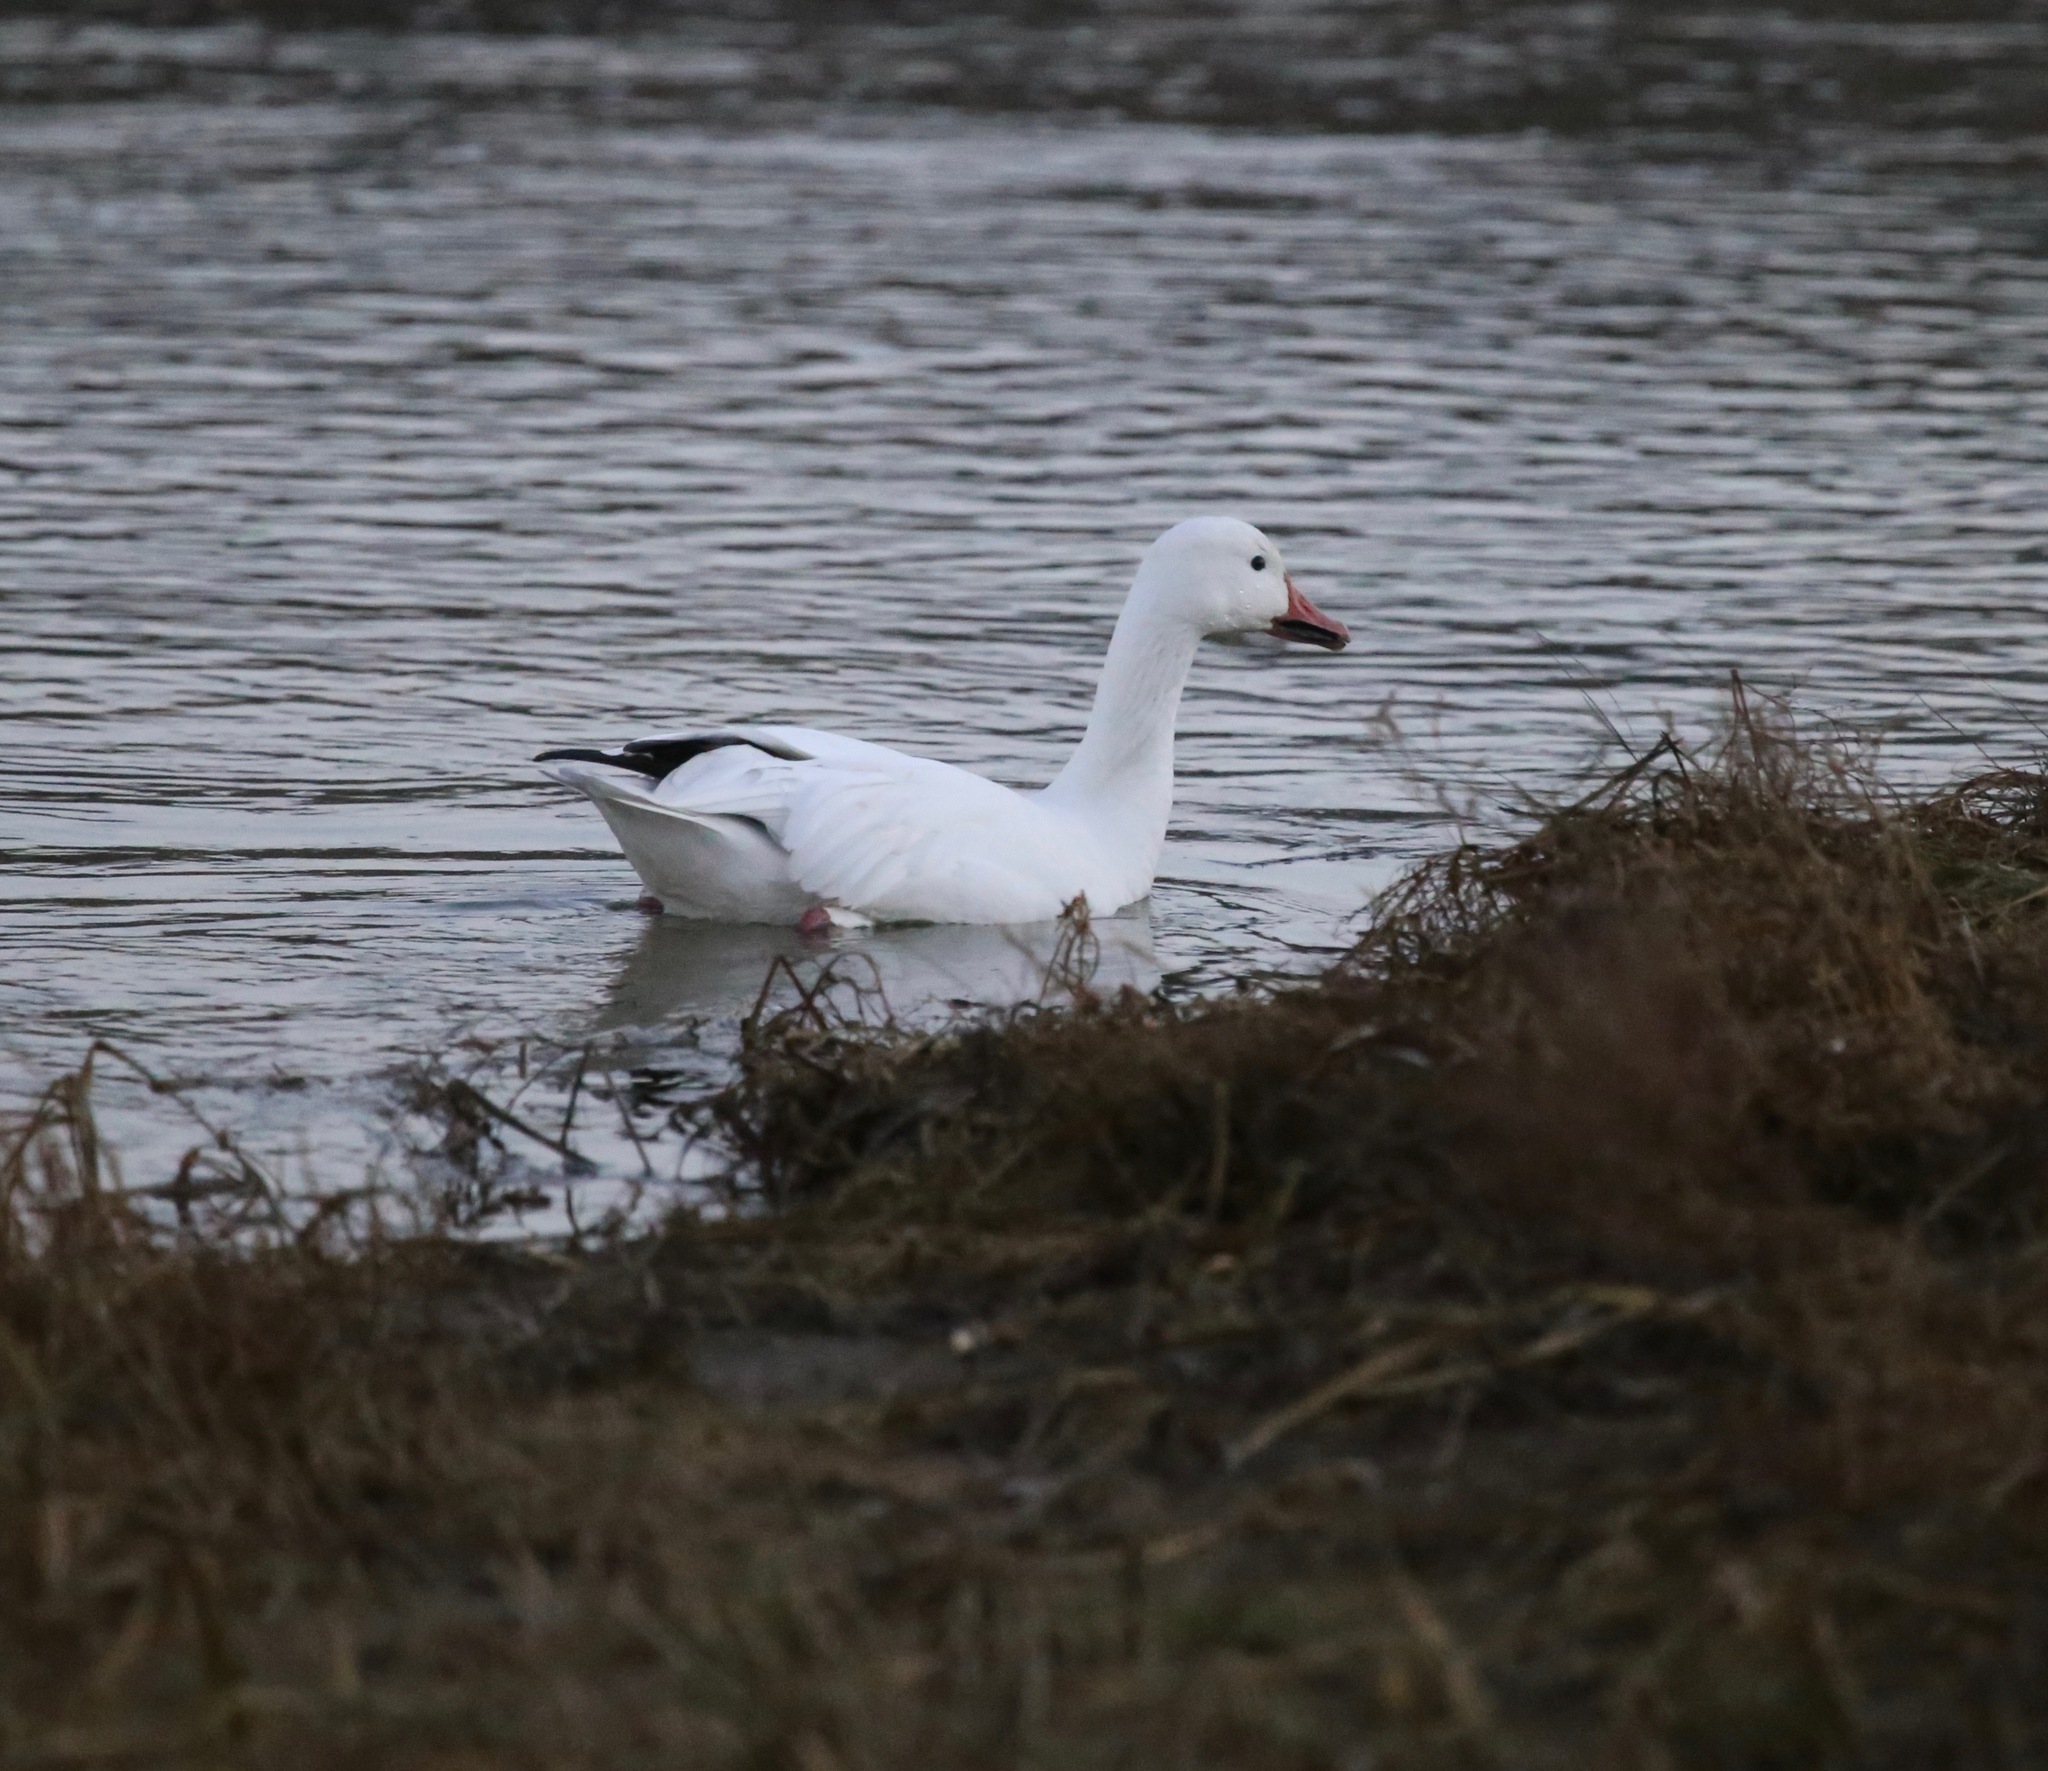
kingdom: Animalia
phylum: Chordata
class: Aves
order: Anseriformes
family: Anatidae
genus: Anser
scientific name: Anser caerulescens
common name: Snow goose
